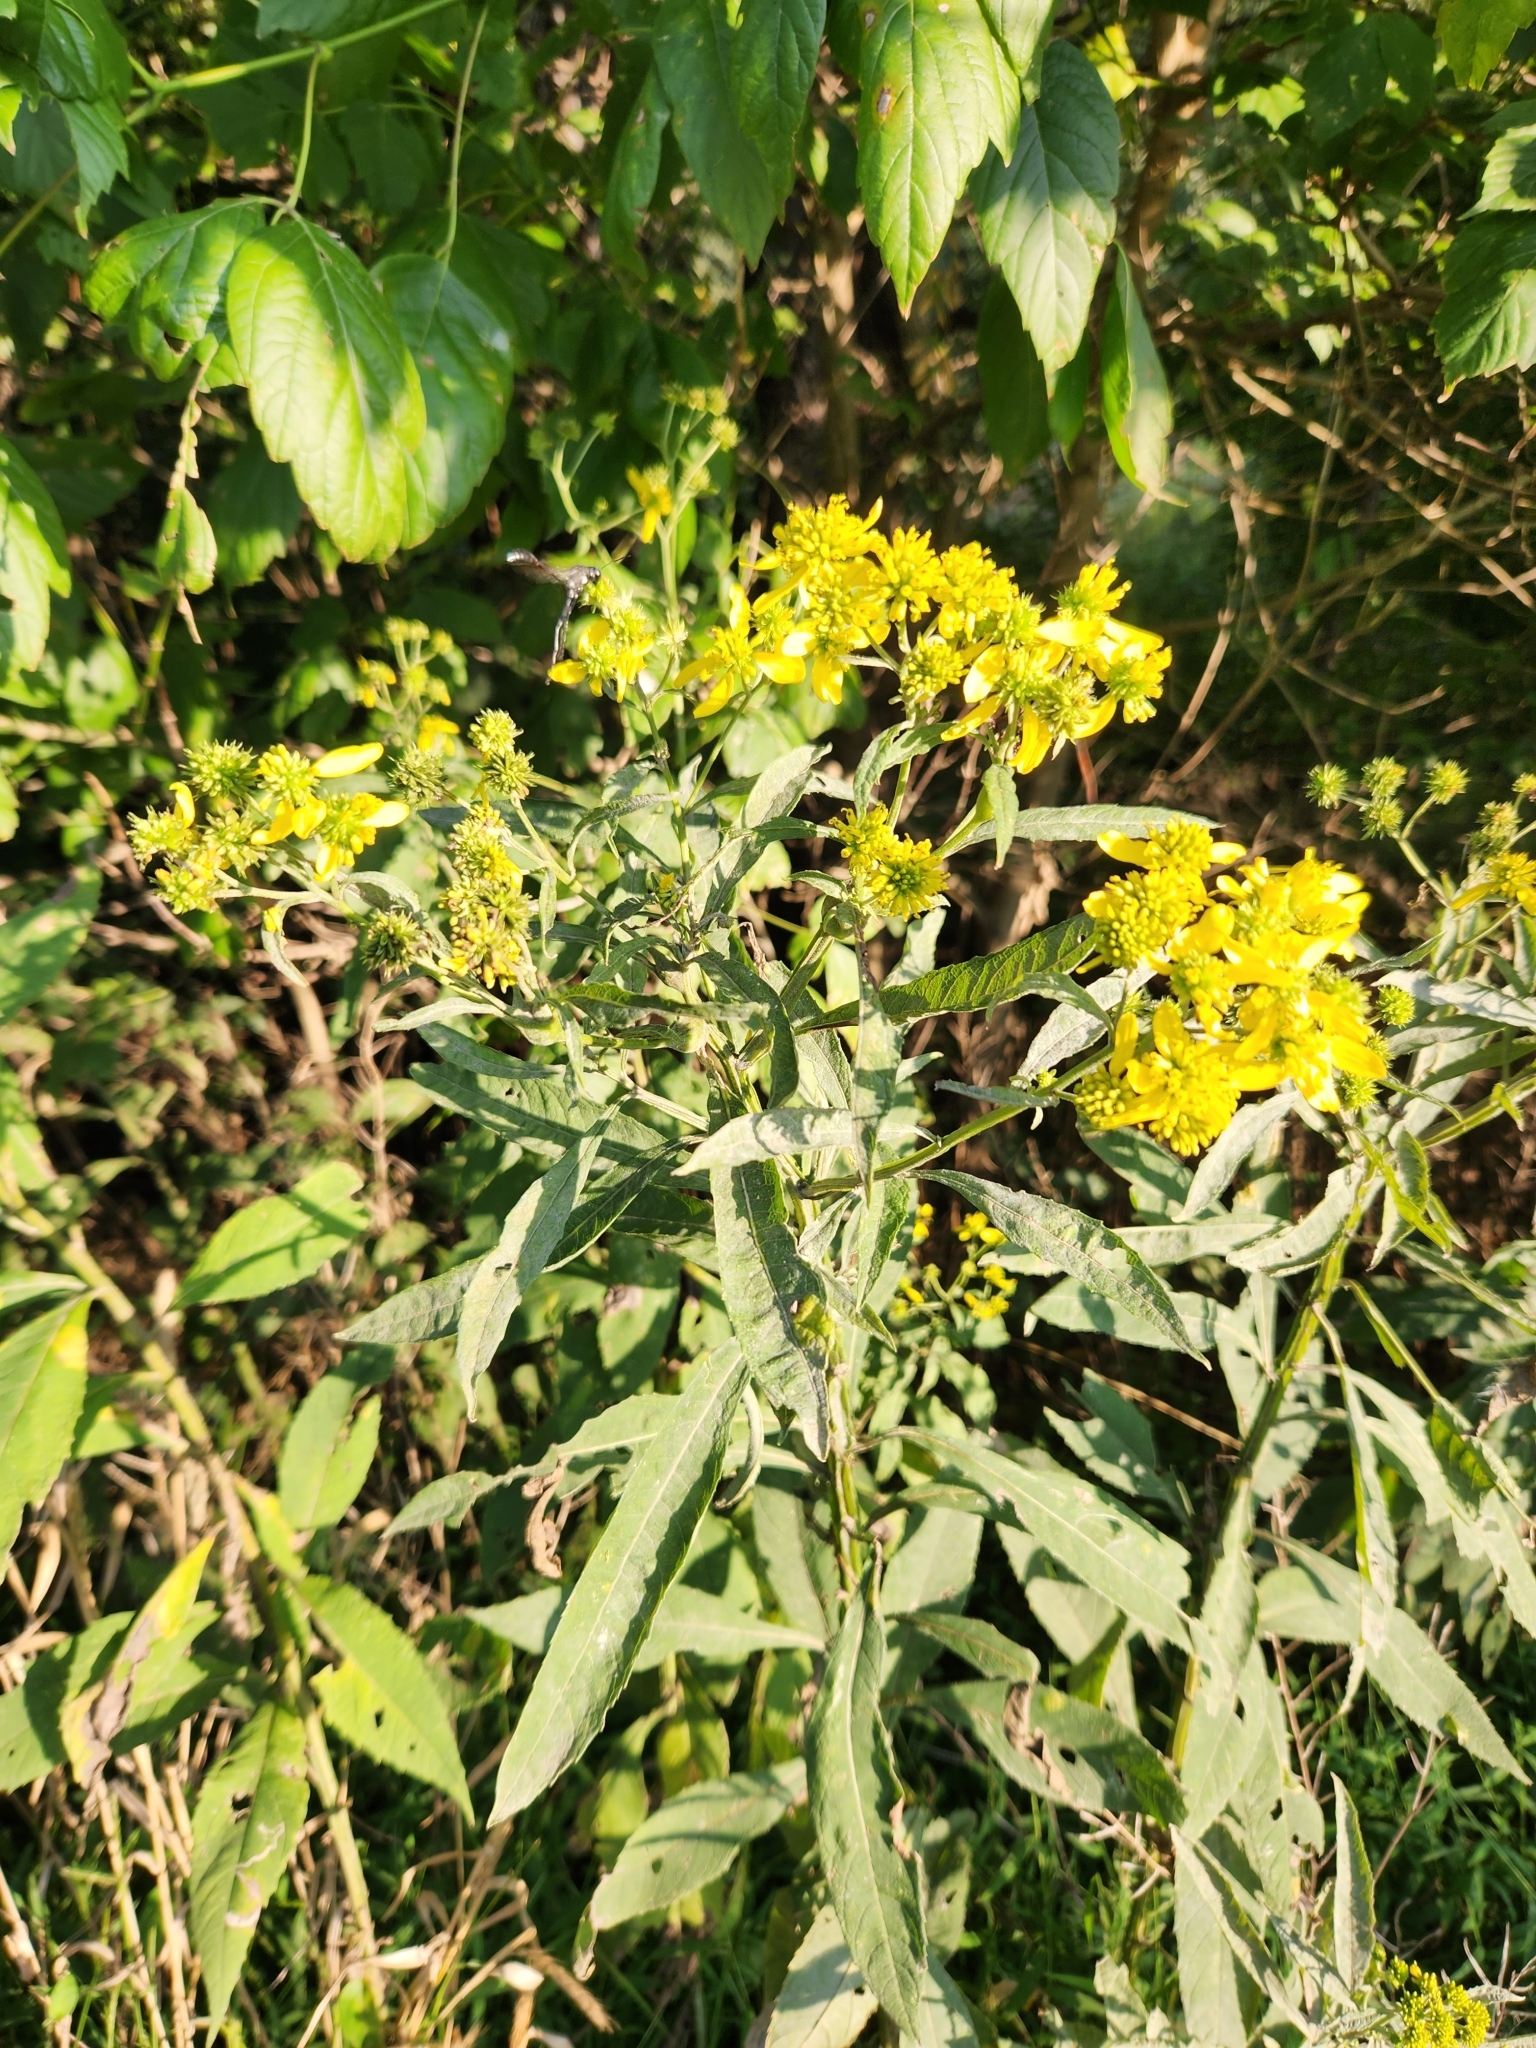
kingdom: Plantae
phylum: Tracheophyta
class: Magnoliopsida
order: Asterales
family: Asteraceae
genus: Verbesina
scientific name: Verbesina alternifolia
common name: Wingstem
